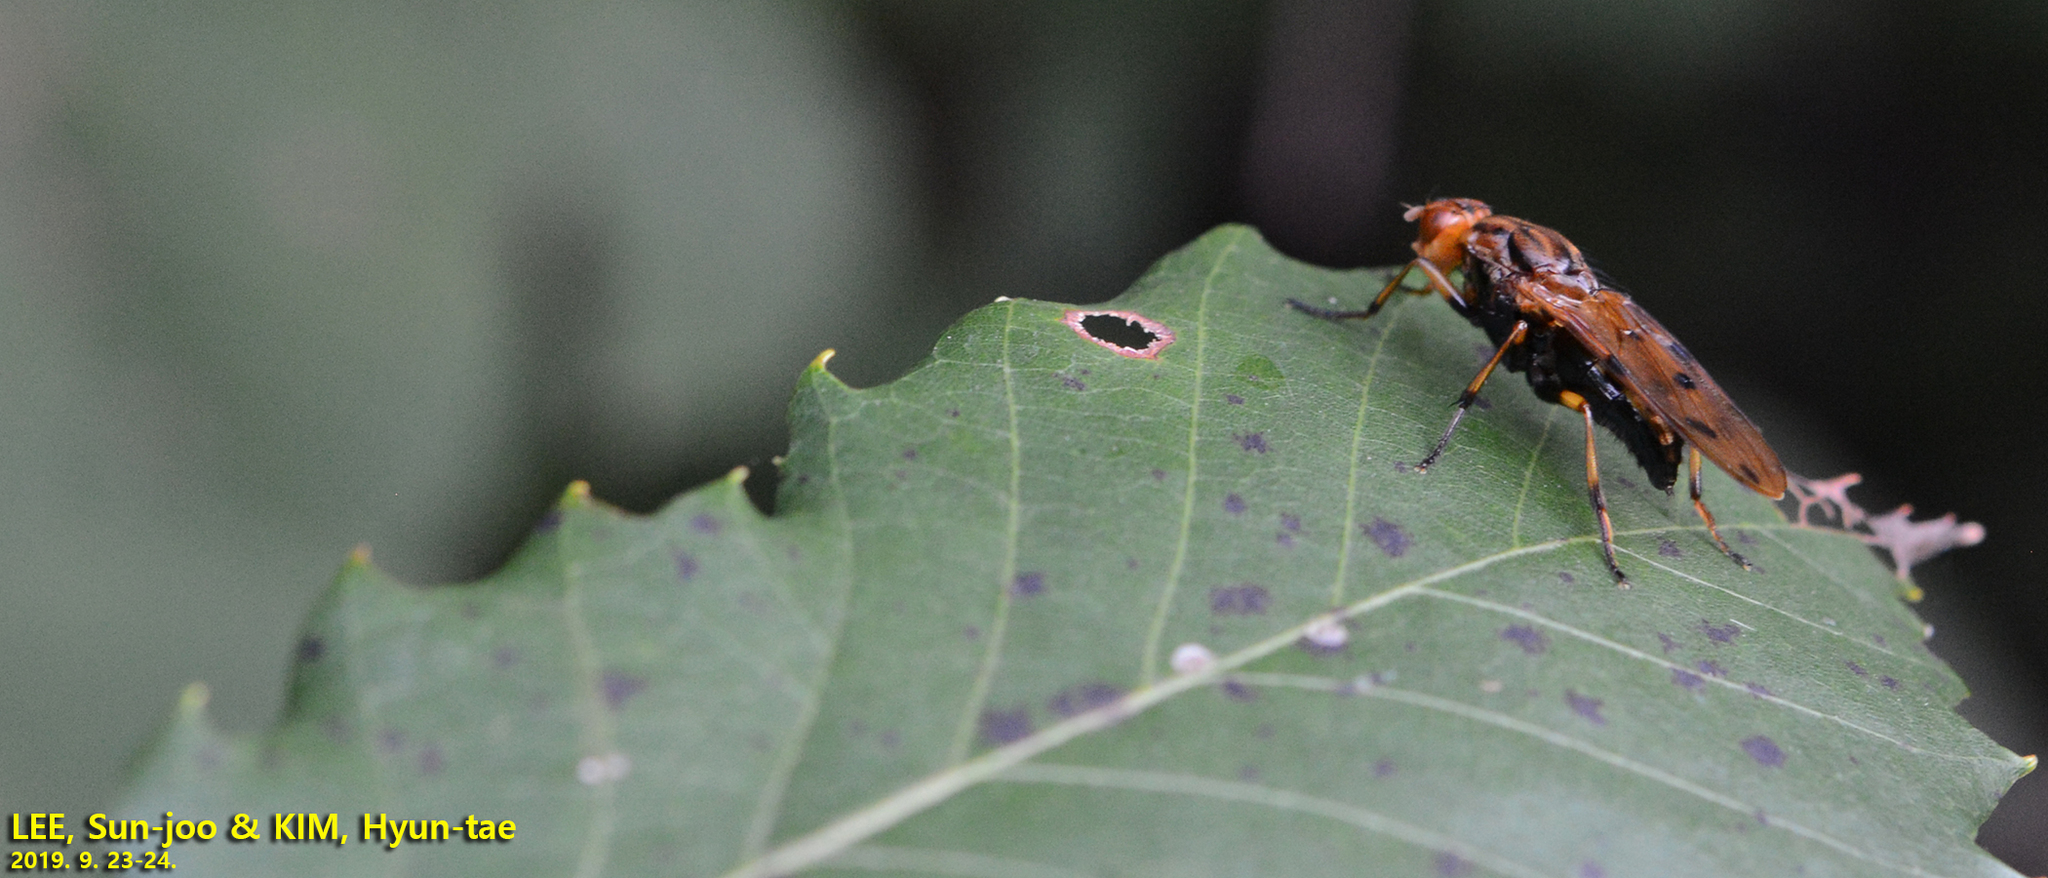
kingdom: Animalia
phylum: Arthropoda
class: Insecta
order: Diptera
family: Dryomyzidae
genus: Dryomyza
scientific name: Dryomyza formosa
